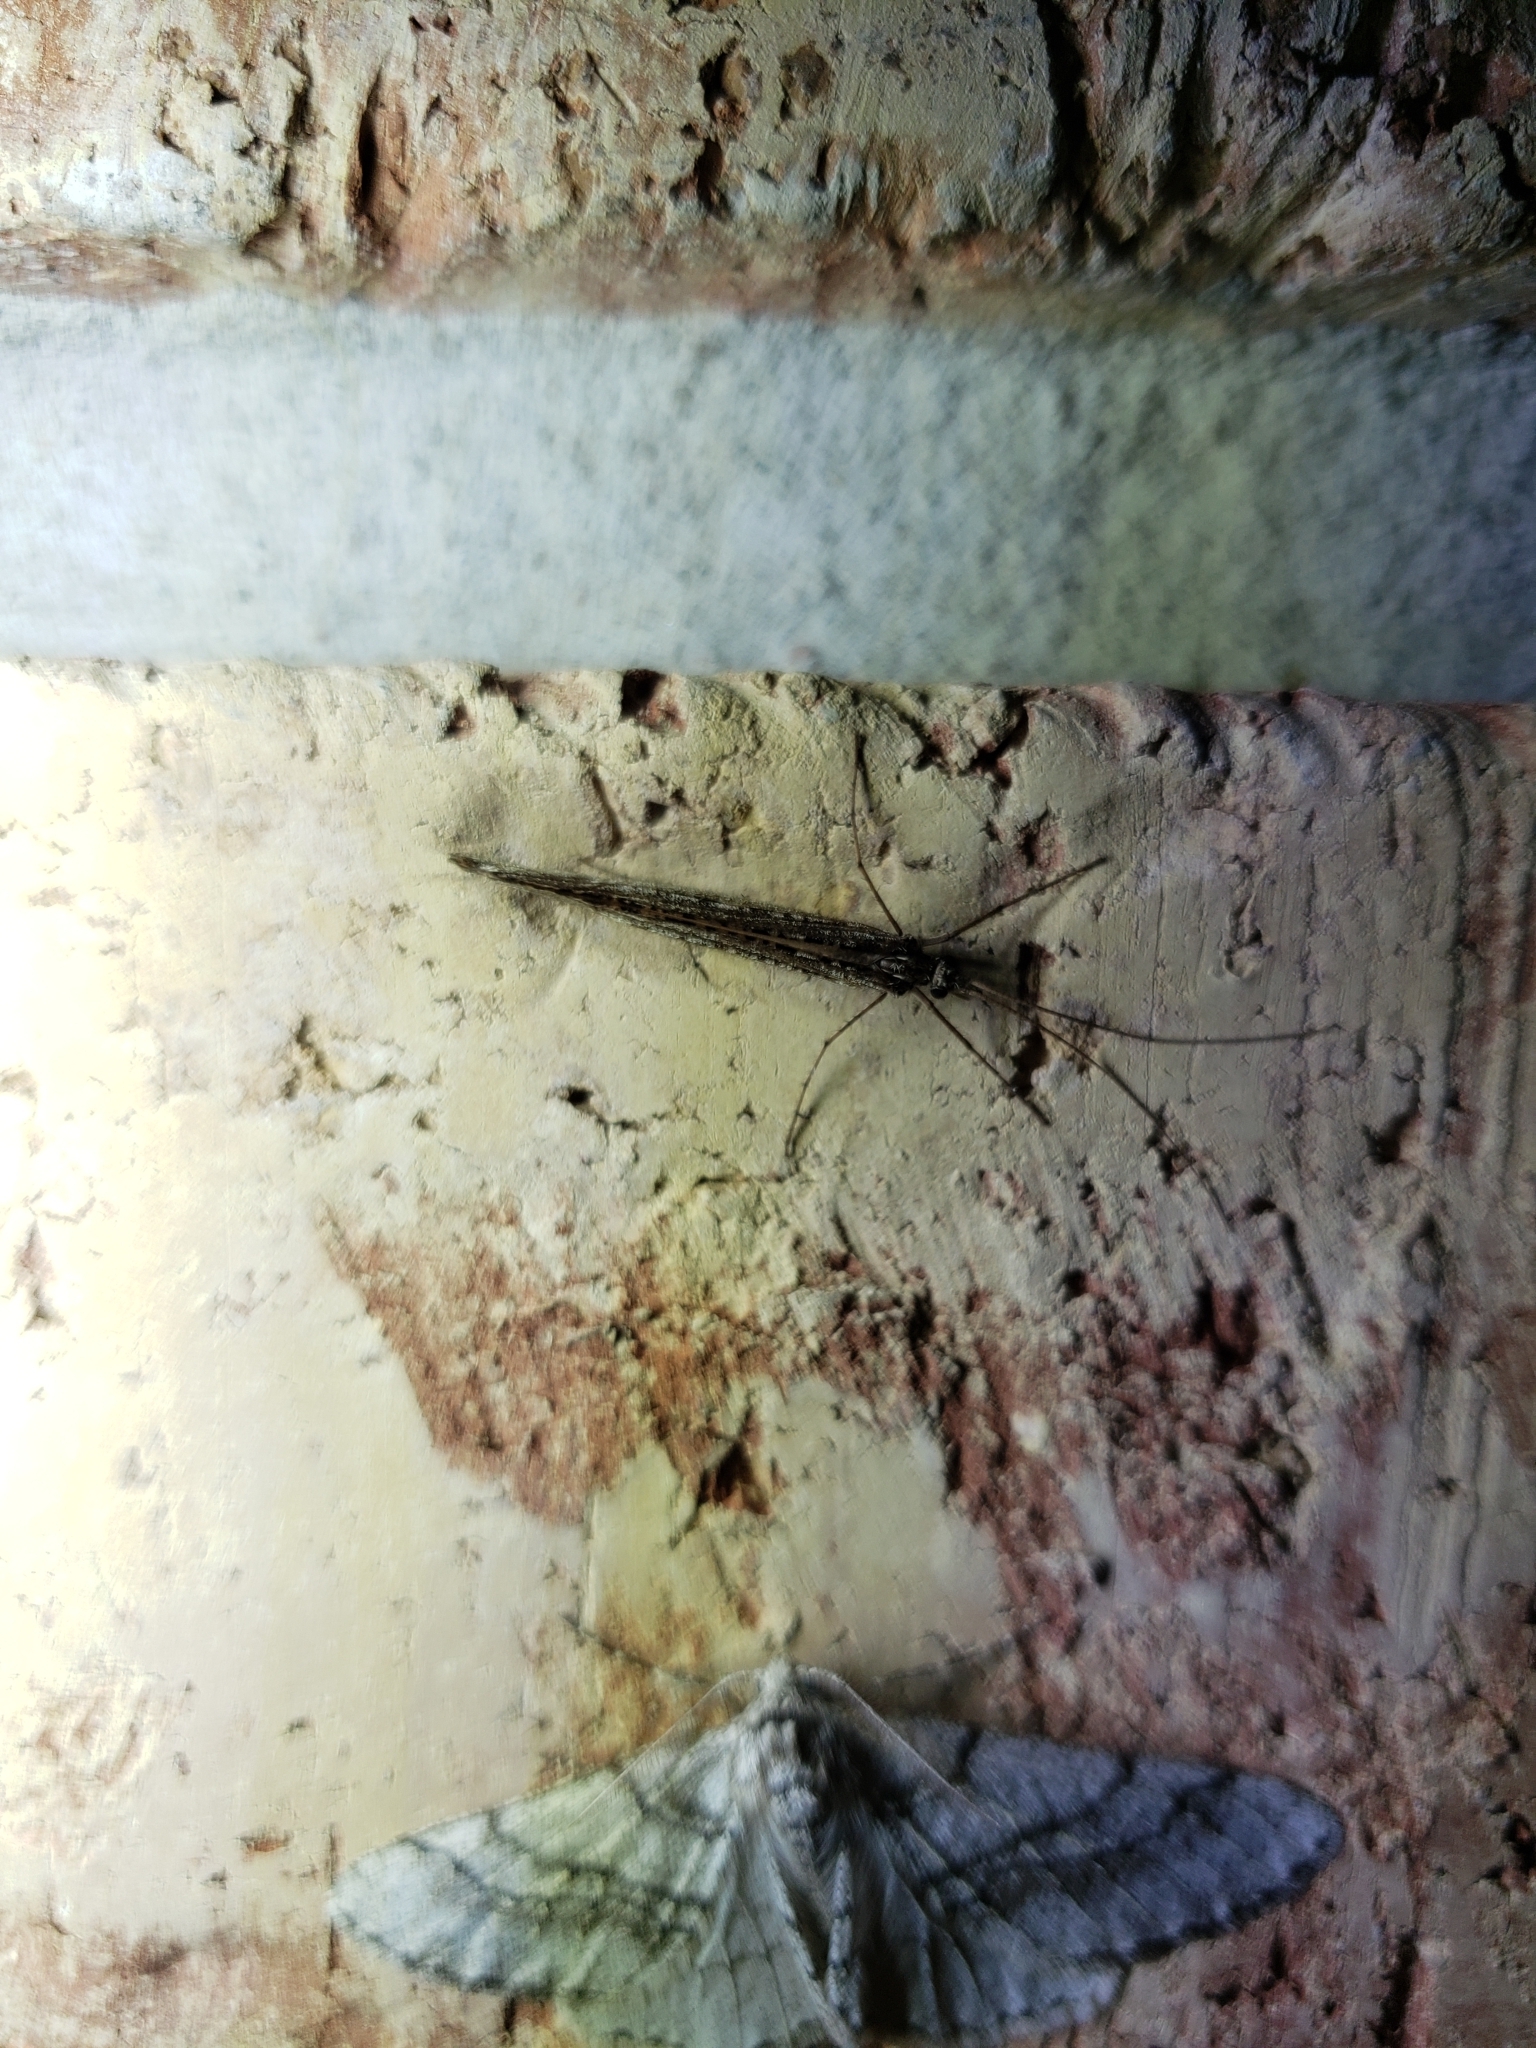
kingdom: Animalia
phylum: Arthropoda
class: Insecta
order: Trichoptera
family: Limnephilidae
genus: Glyphopsyche
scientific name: Glyphopsyche irrorata
